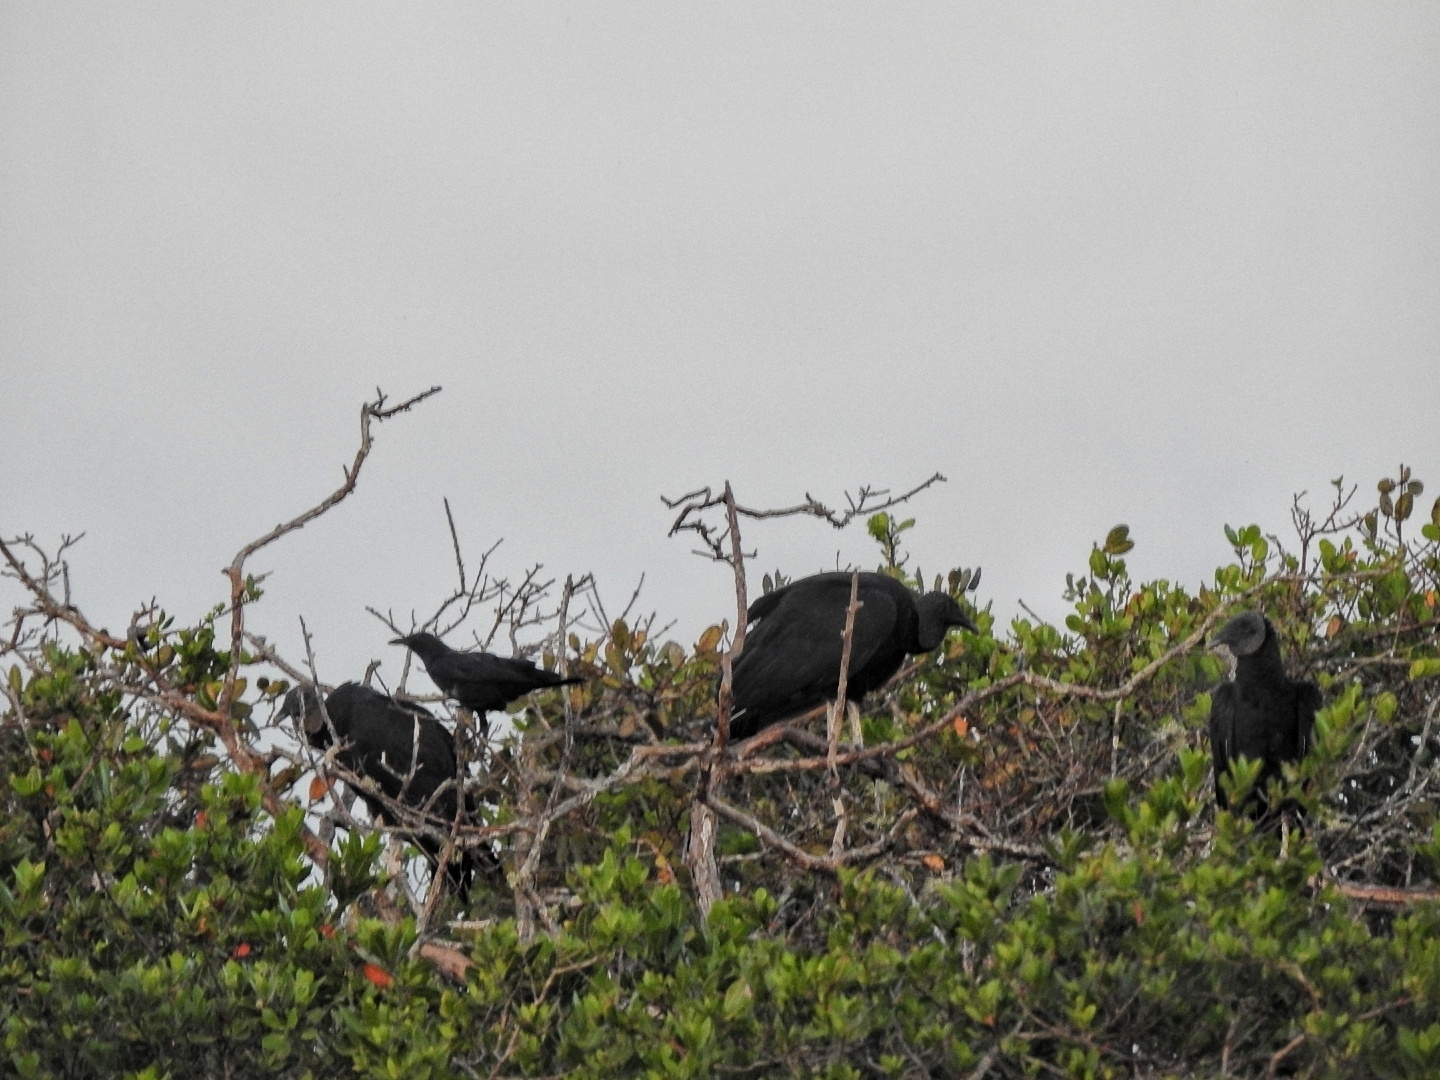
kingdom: Animalia
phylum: Chordata
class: Aves
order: Accipitriformes
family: Cathartidae
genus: Coragyps
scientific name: Coragyps atratus
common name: Black vulture
